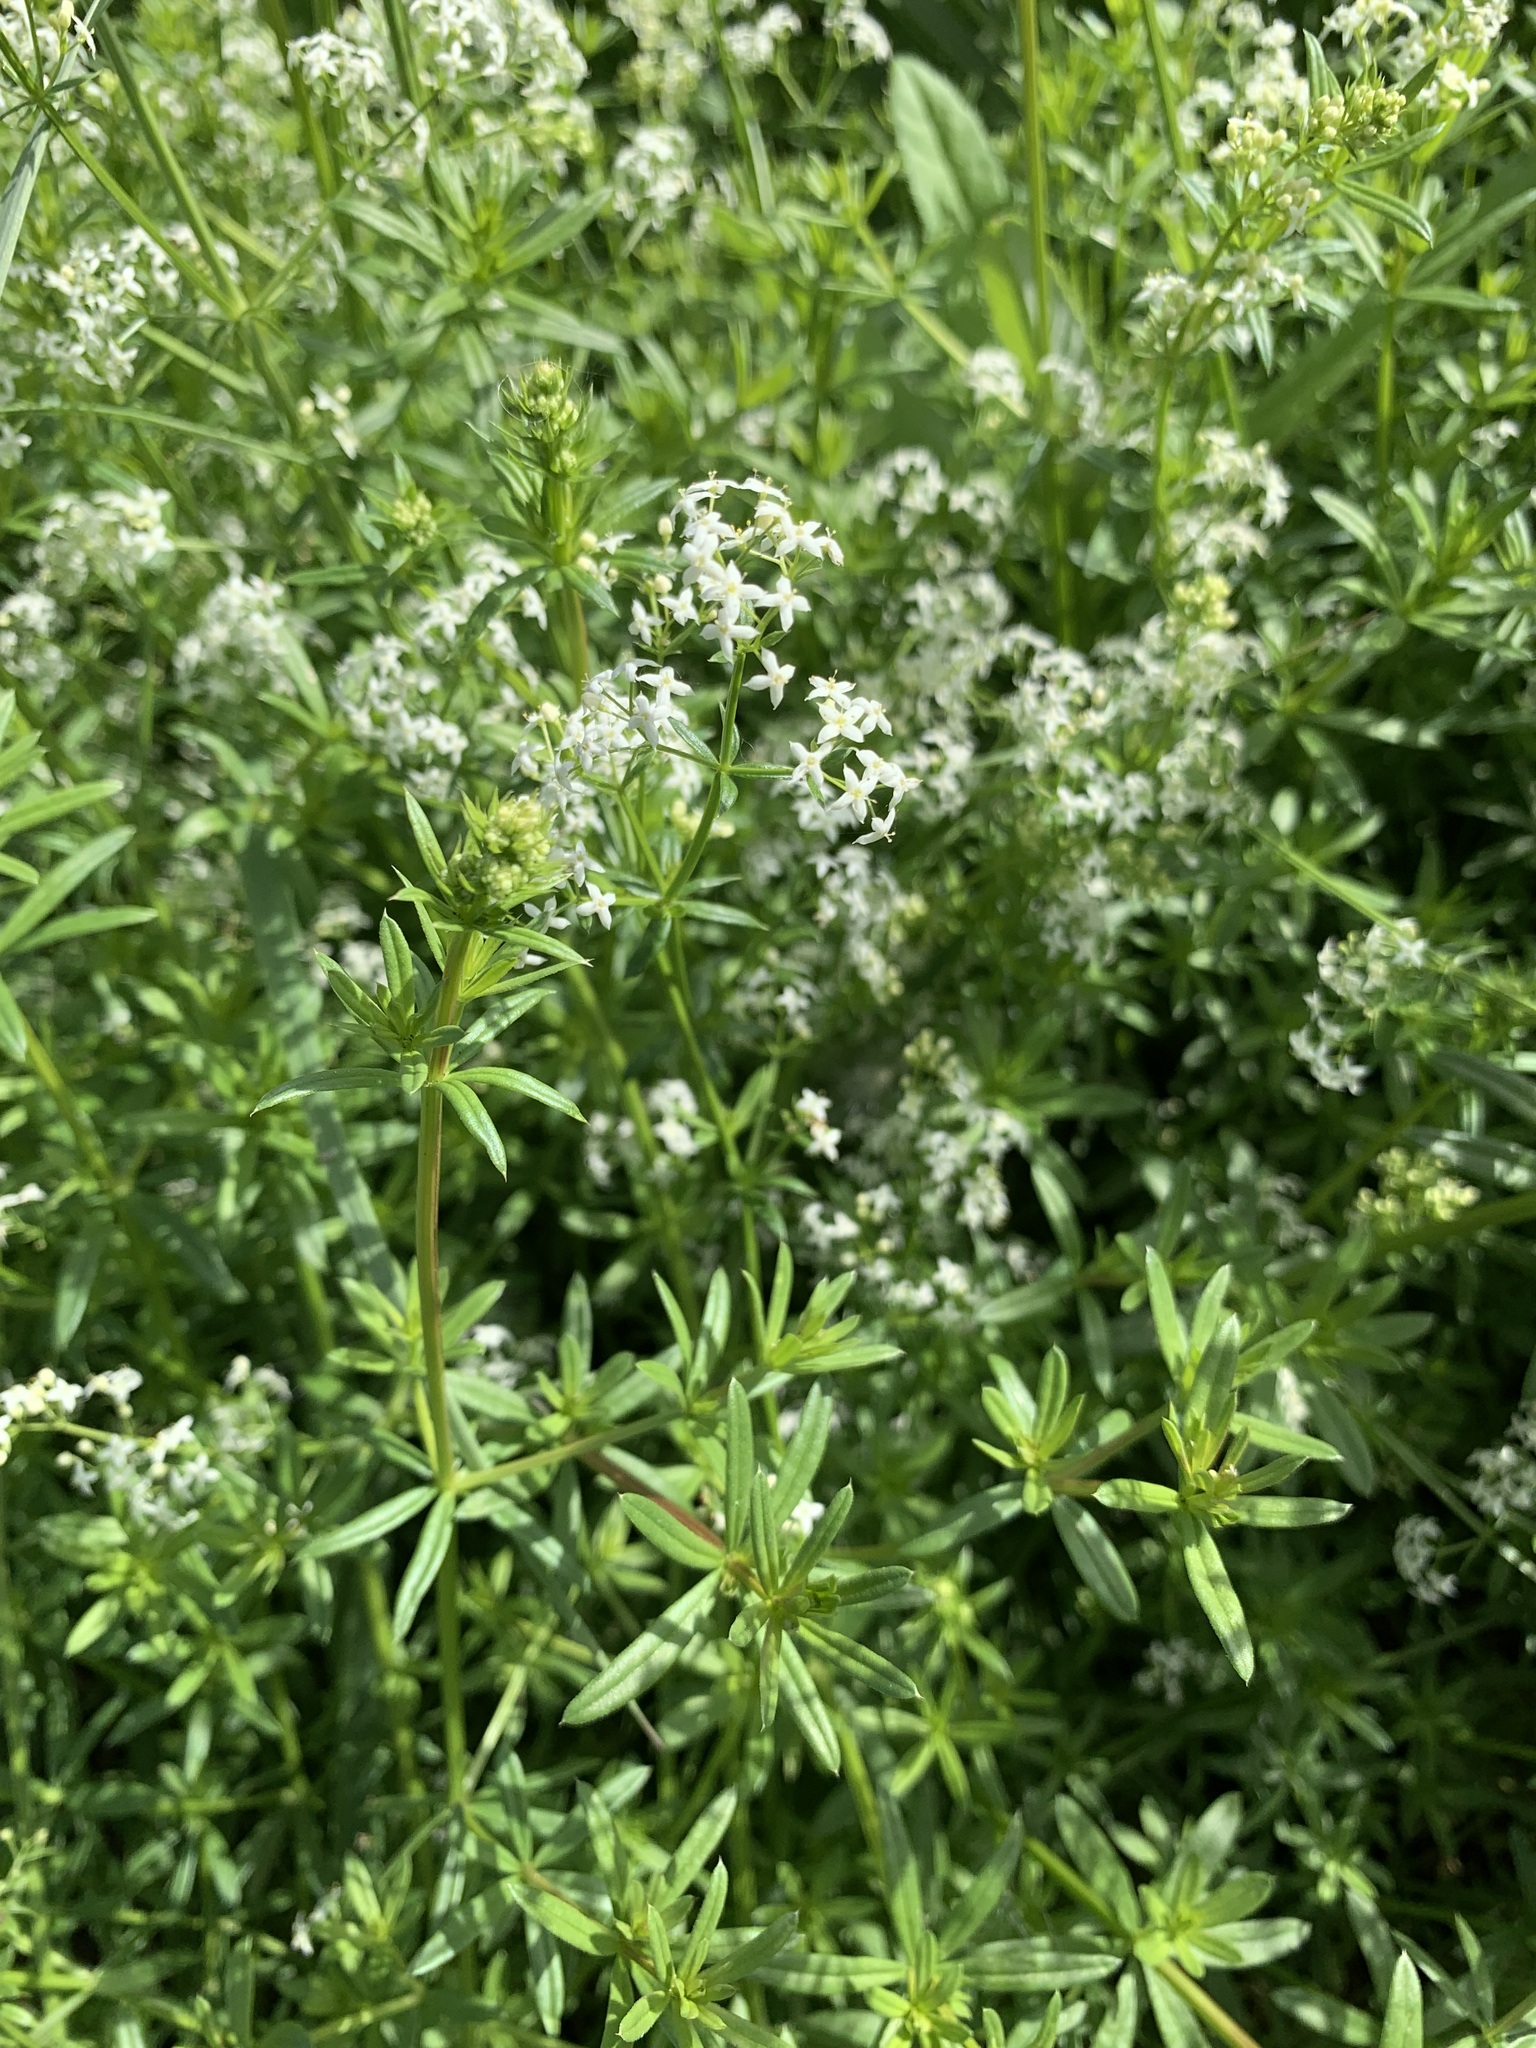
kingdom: Plantae
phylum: Tracheophyta
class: Magnoliopsida
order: Gentianales
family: Rubiaceae
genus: Galium
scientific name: Galium mollugo
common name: Hedge bedstraw
